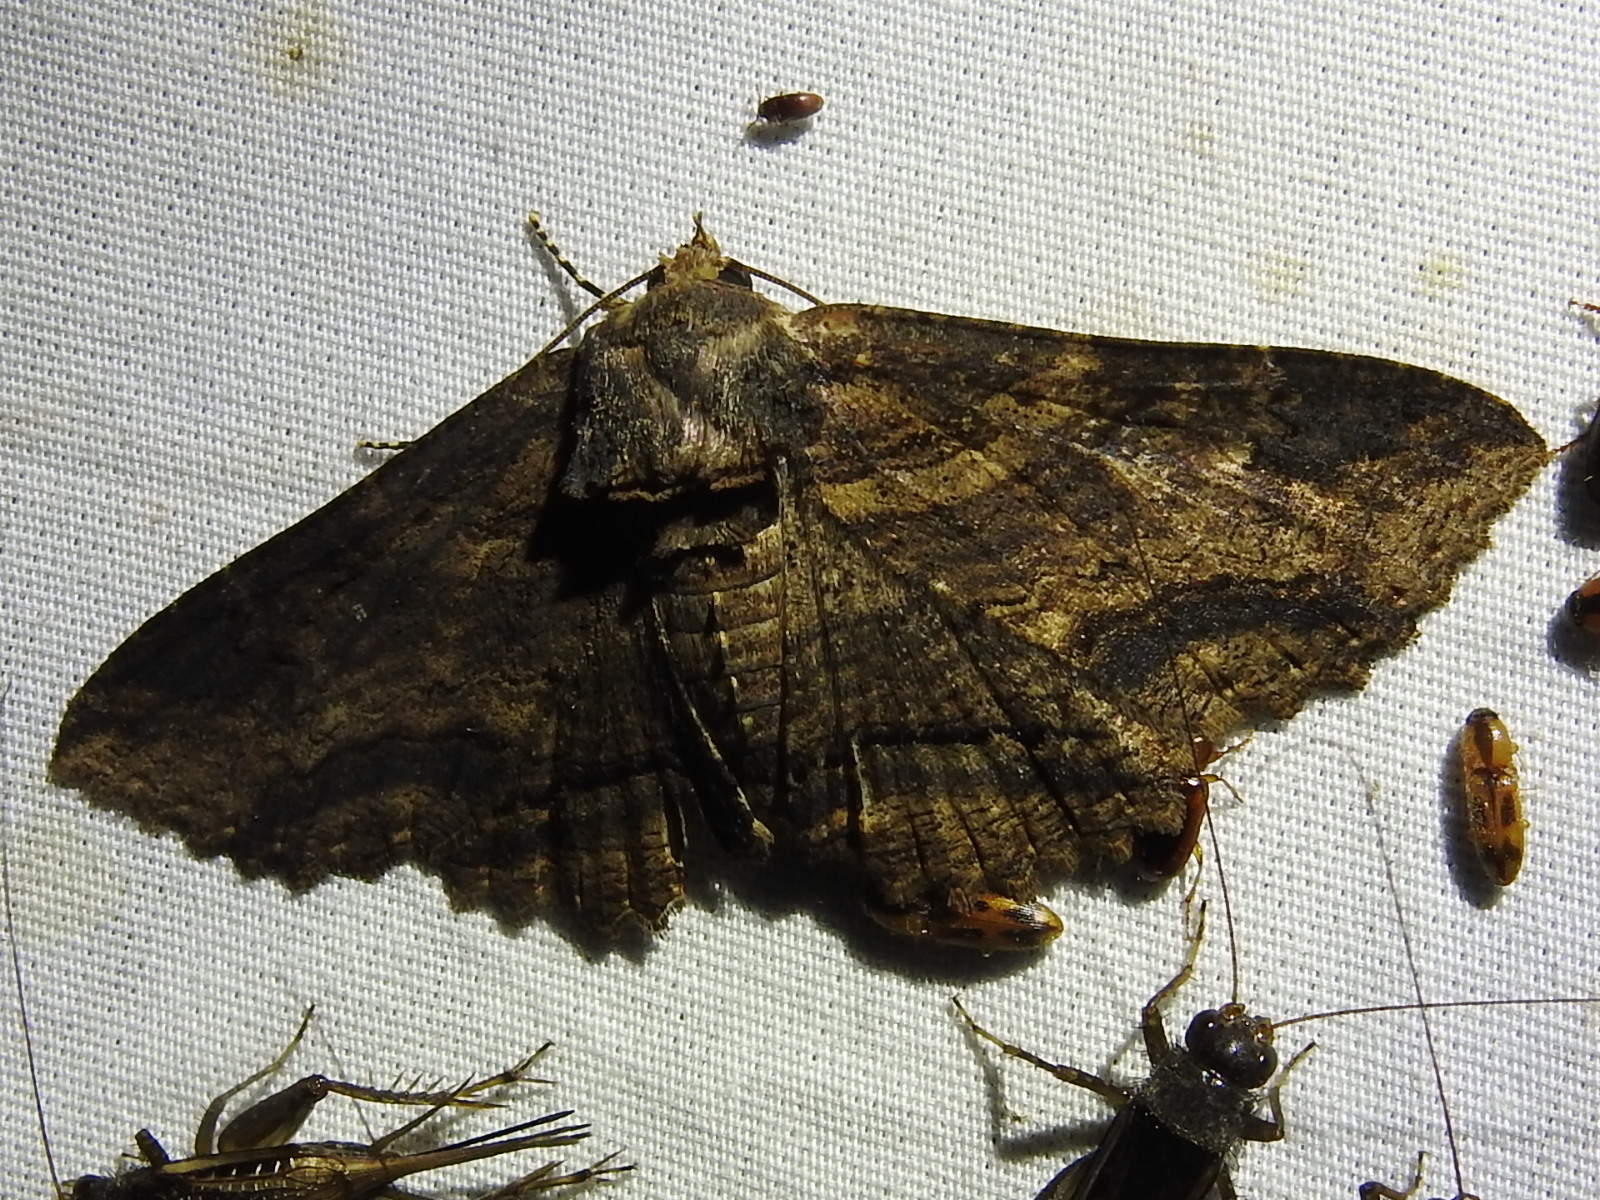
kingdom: Animalia
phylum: Arthropoda
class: Insecta
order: Lepidoptera
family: Erebidae
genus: Zale
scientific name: Zale lunata
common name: Lunate zale moth
